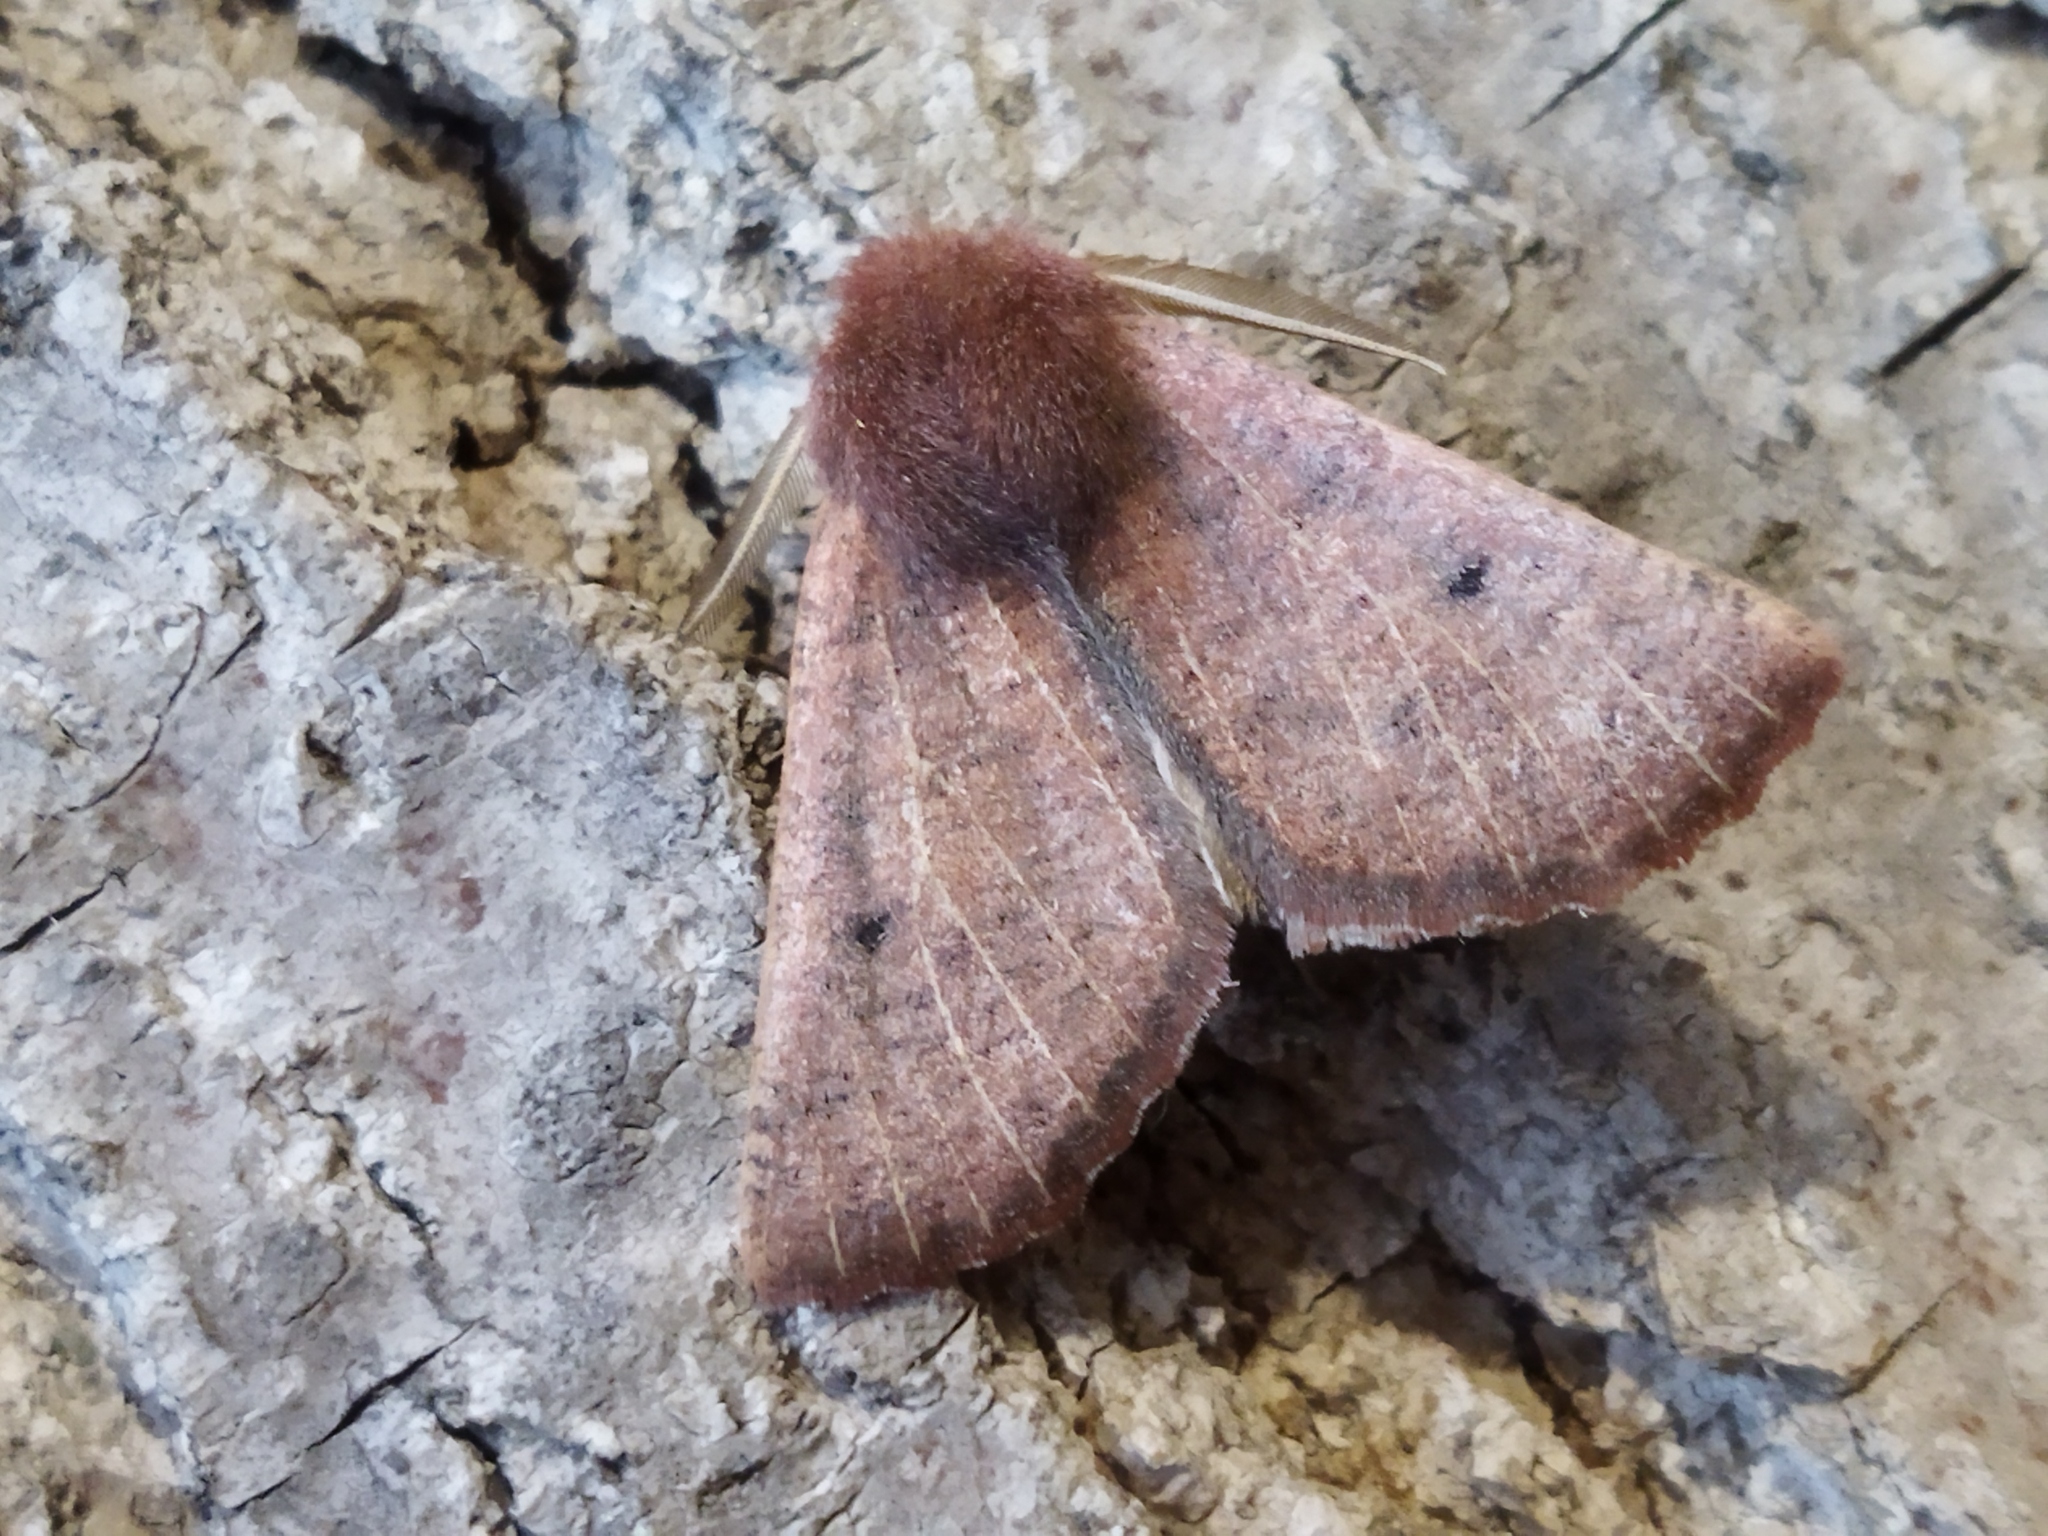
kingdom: Animalia
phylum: Arthropoda
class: Insecta
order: Lepidoptera
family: Geometridae
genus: Dasycorsa
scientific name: Dasycorsa modesta
